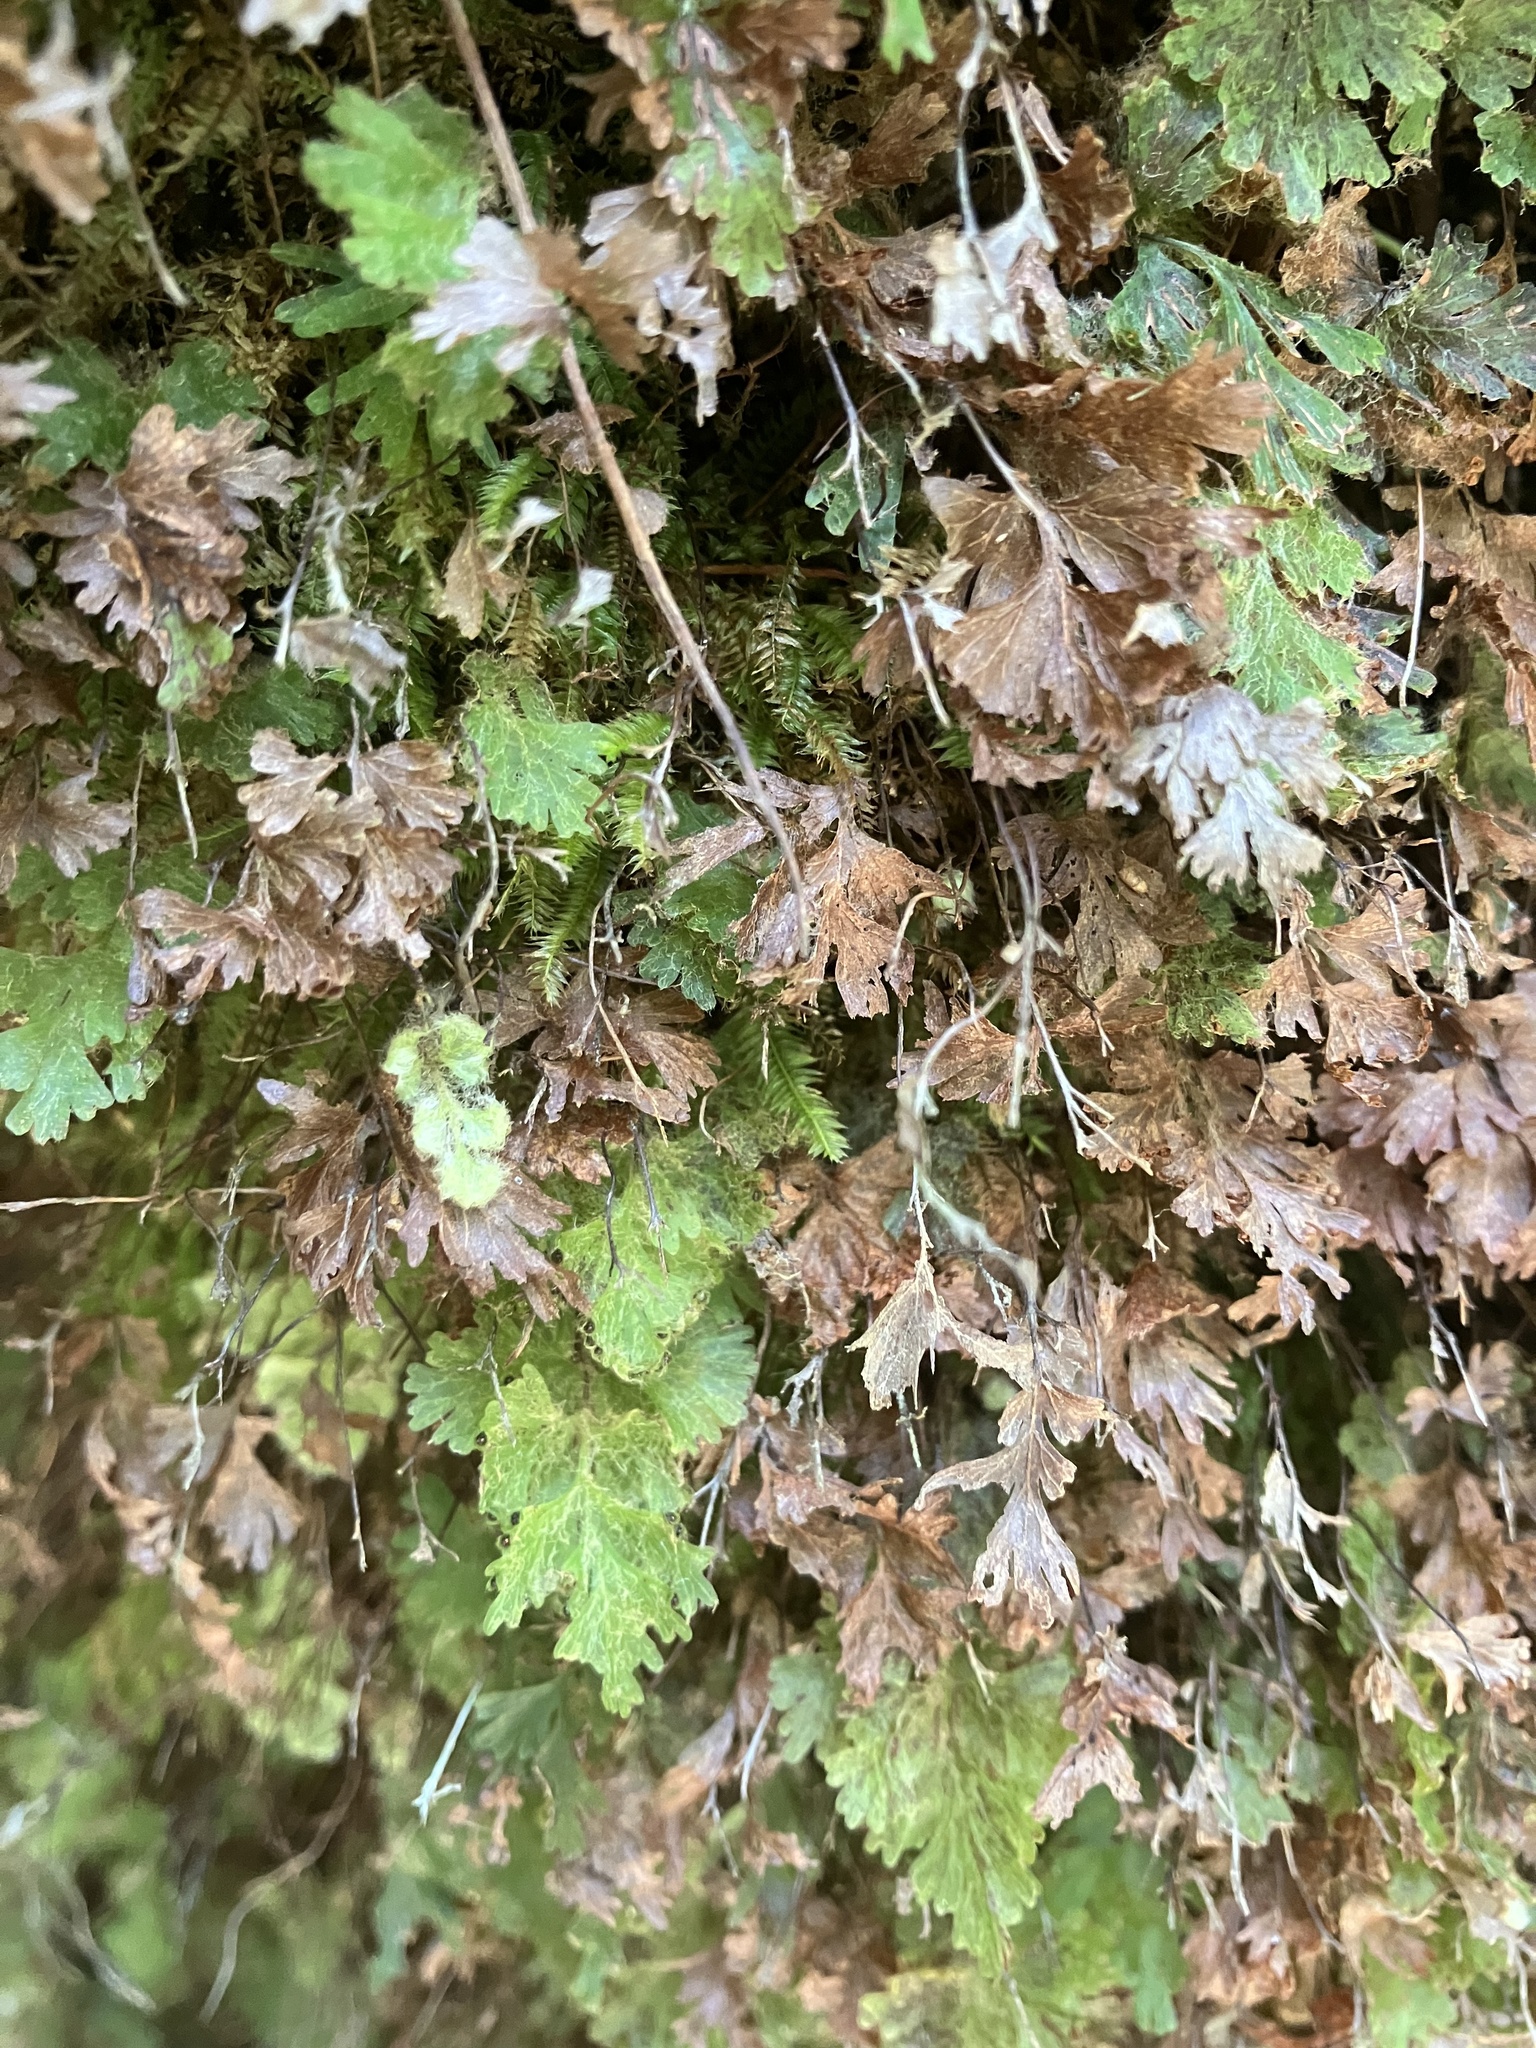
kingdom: Plantae
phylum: Tracheophyta
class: Polypodiopsida
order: Hymenophyllales
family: Hymenophyllaceae
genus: Hymenophyllum
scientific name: Hymenophyllum rufescens
